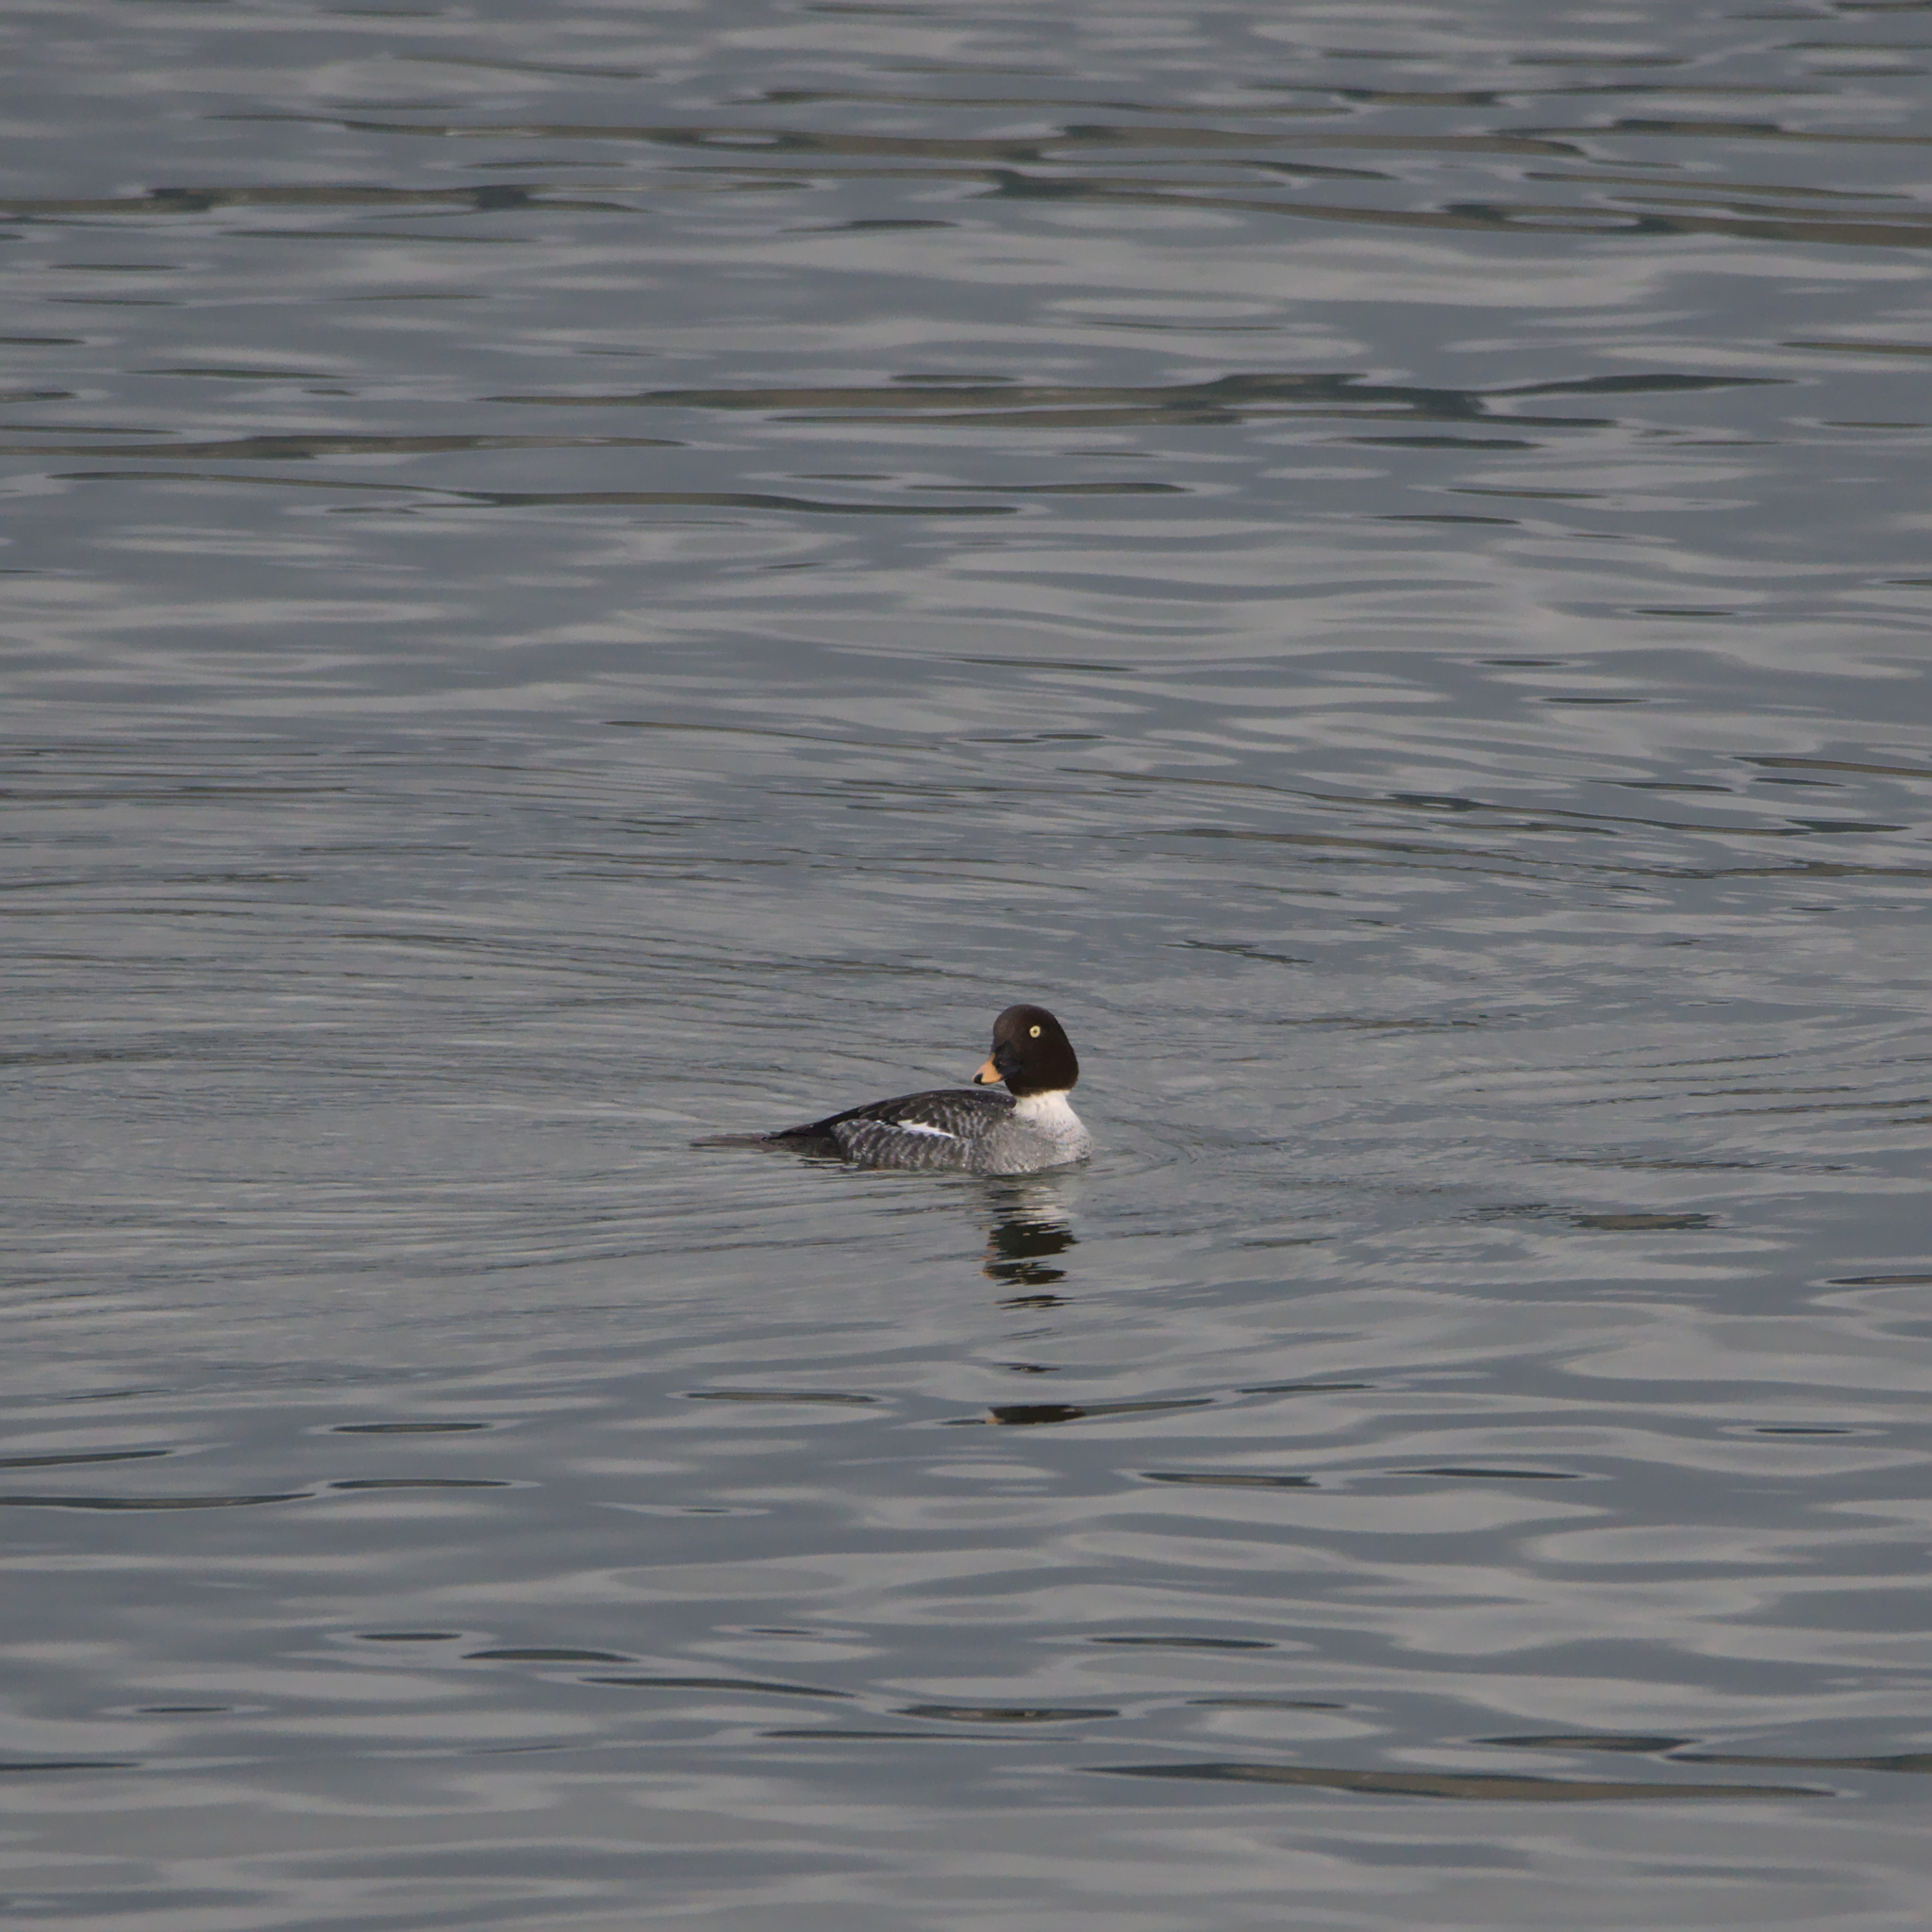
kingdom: Animalia
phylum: Chordata
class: Aves
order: Anseriformes
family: Anatidae
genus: Bucephala
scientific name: Bucephala clangula
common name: Common goldeneye
